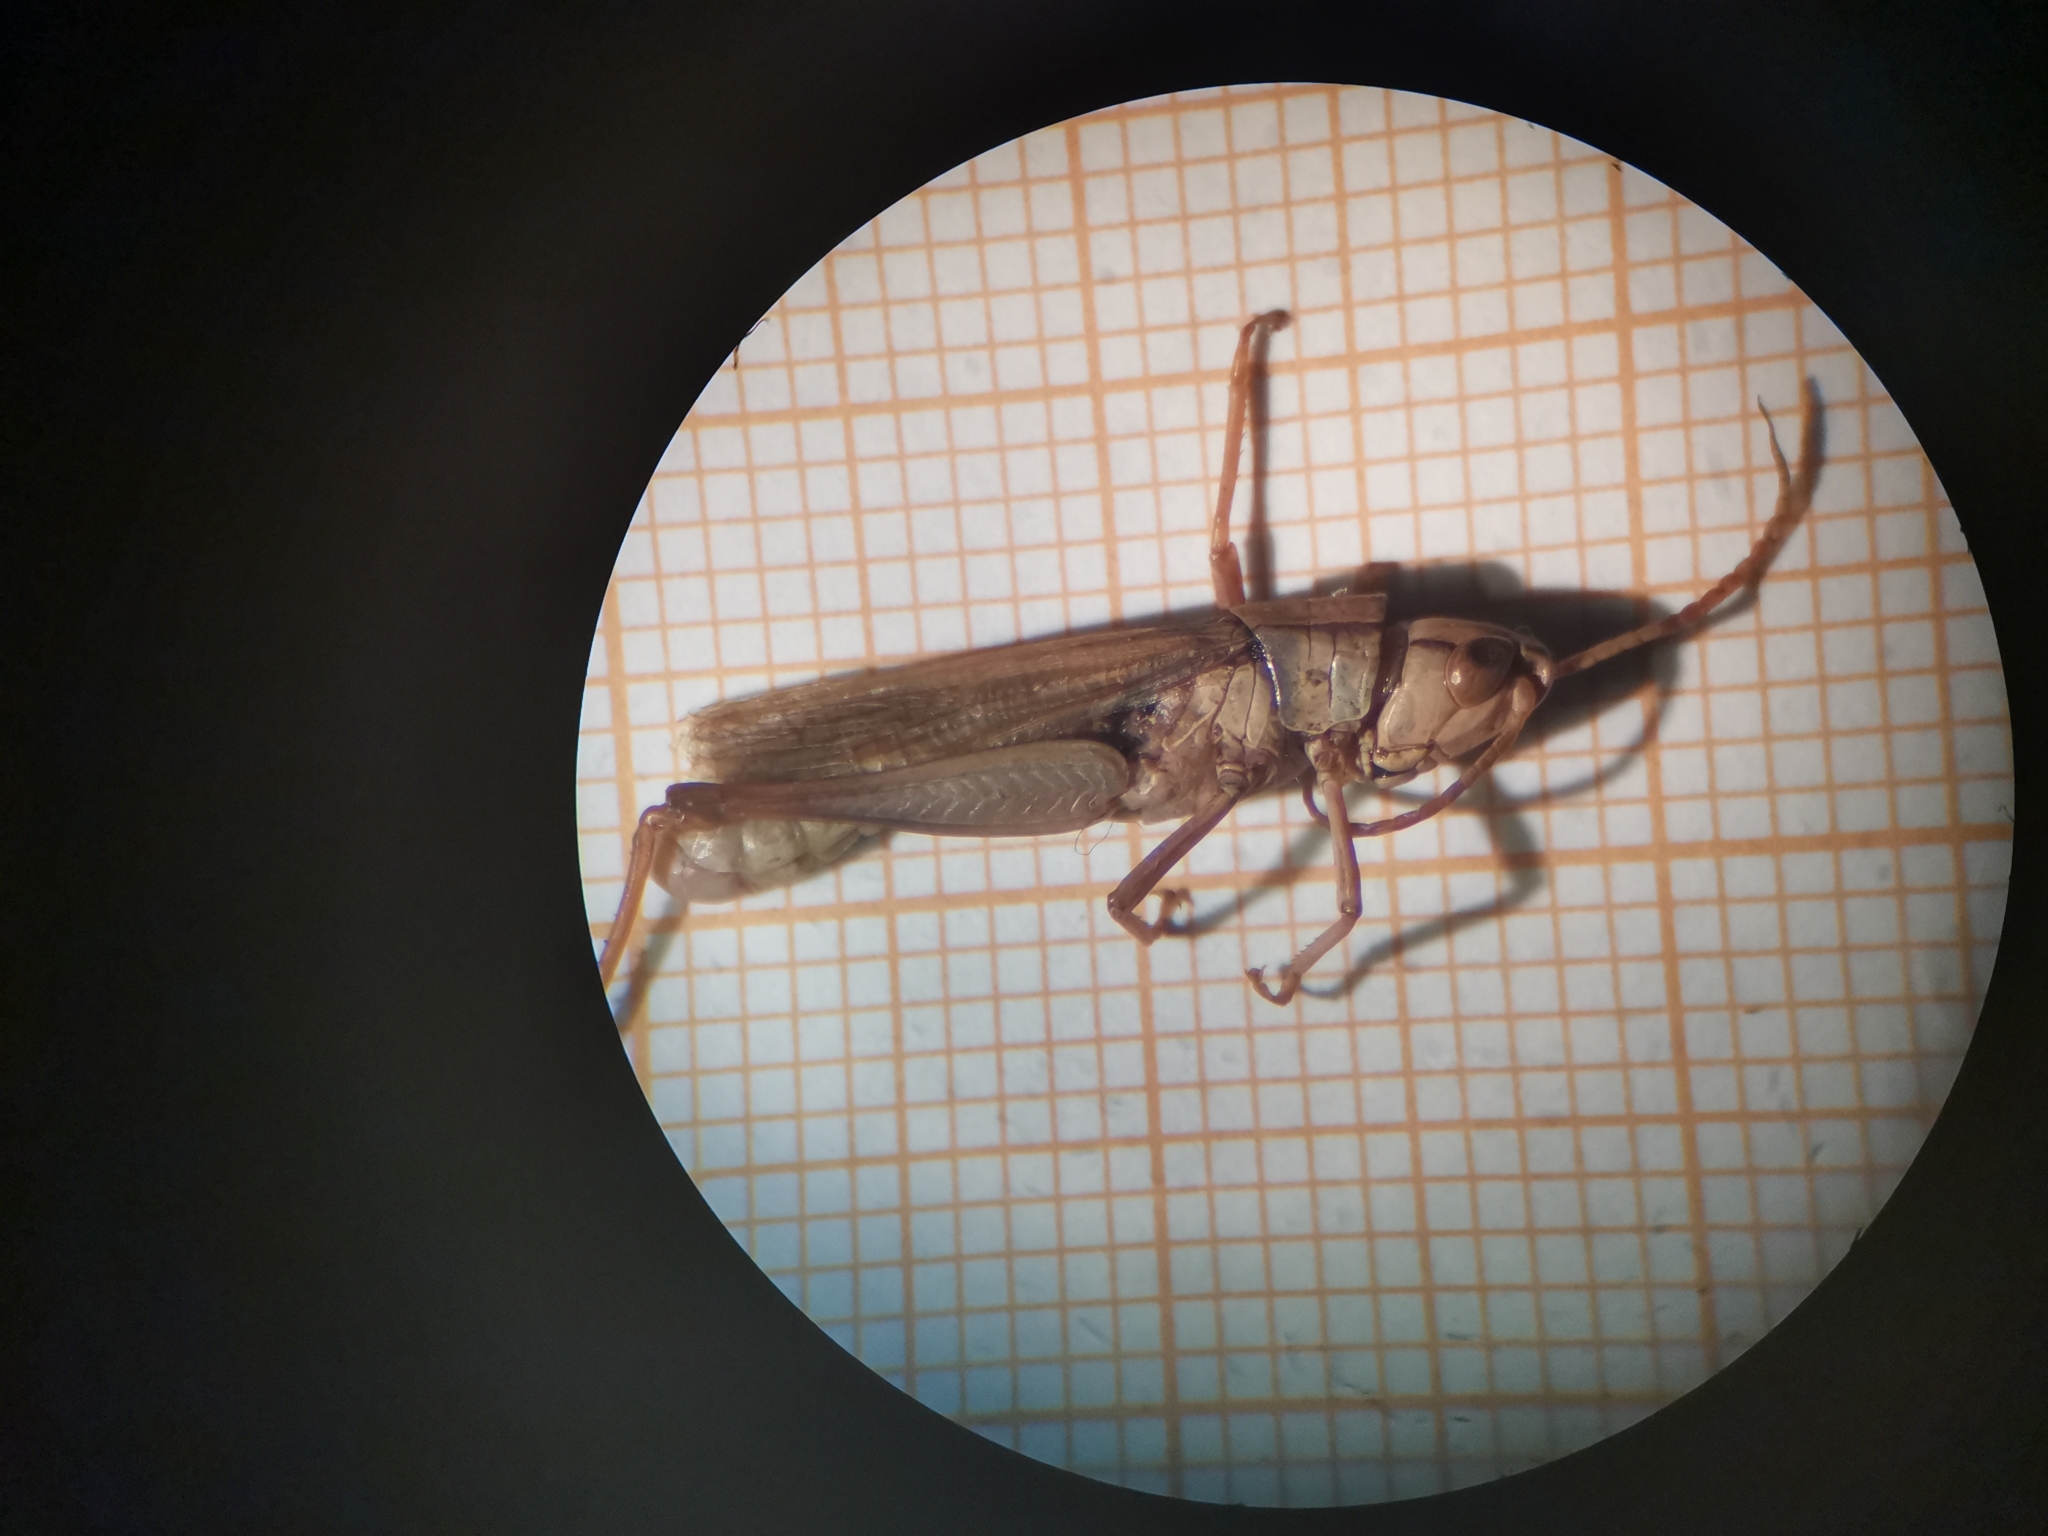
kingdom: Animalia
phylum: Arthropoda
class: Insecta
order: Orthoptera
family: Acrididae
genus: Chorthippus
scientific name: Chorthippus albomarginatus
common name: Lesser marsh grasshopper
